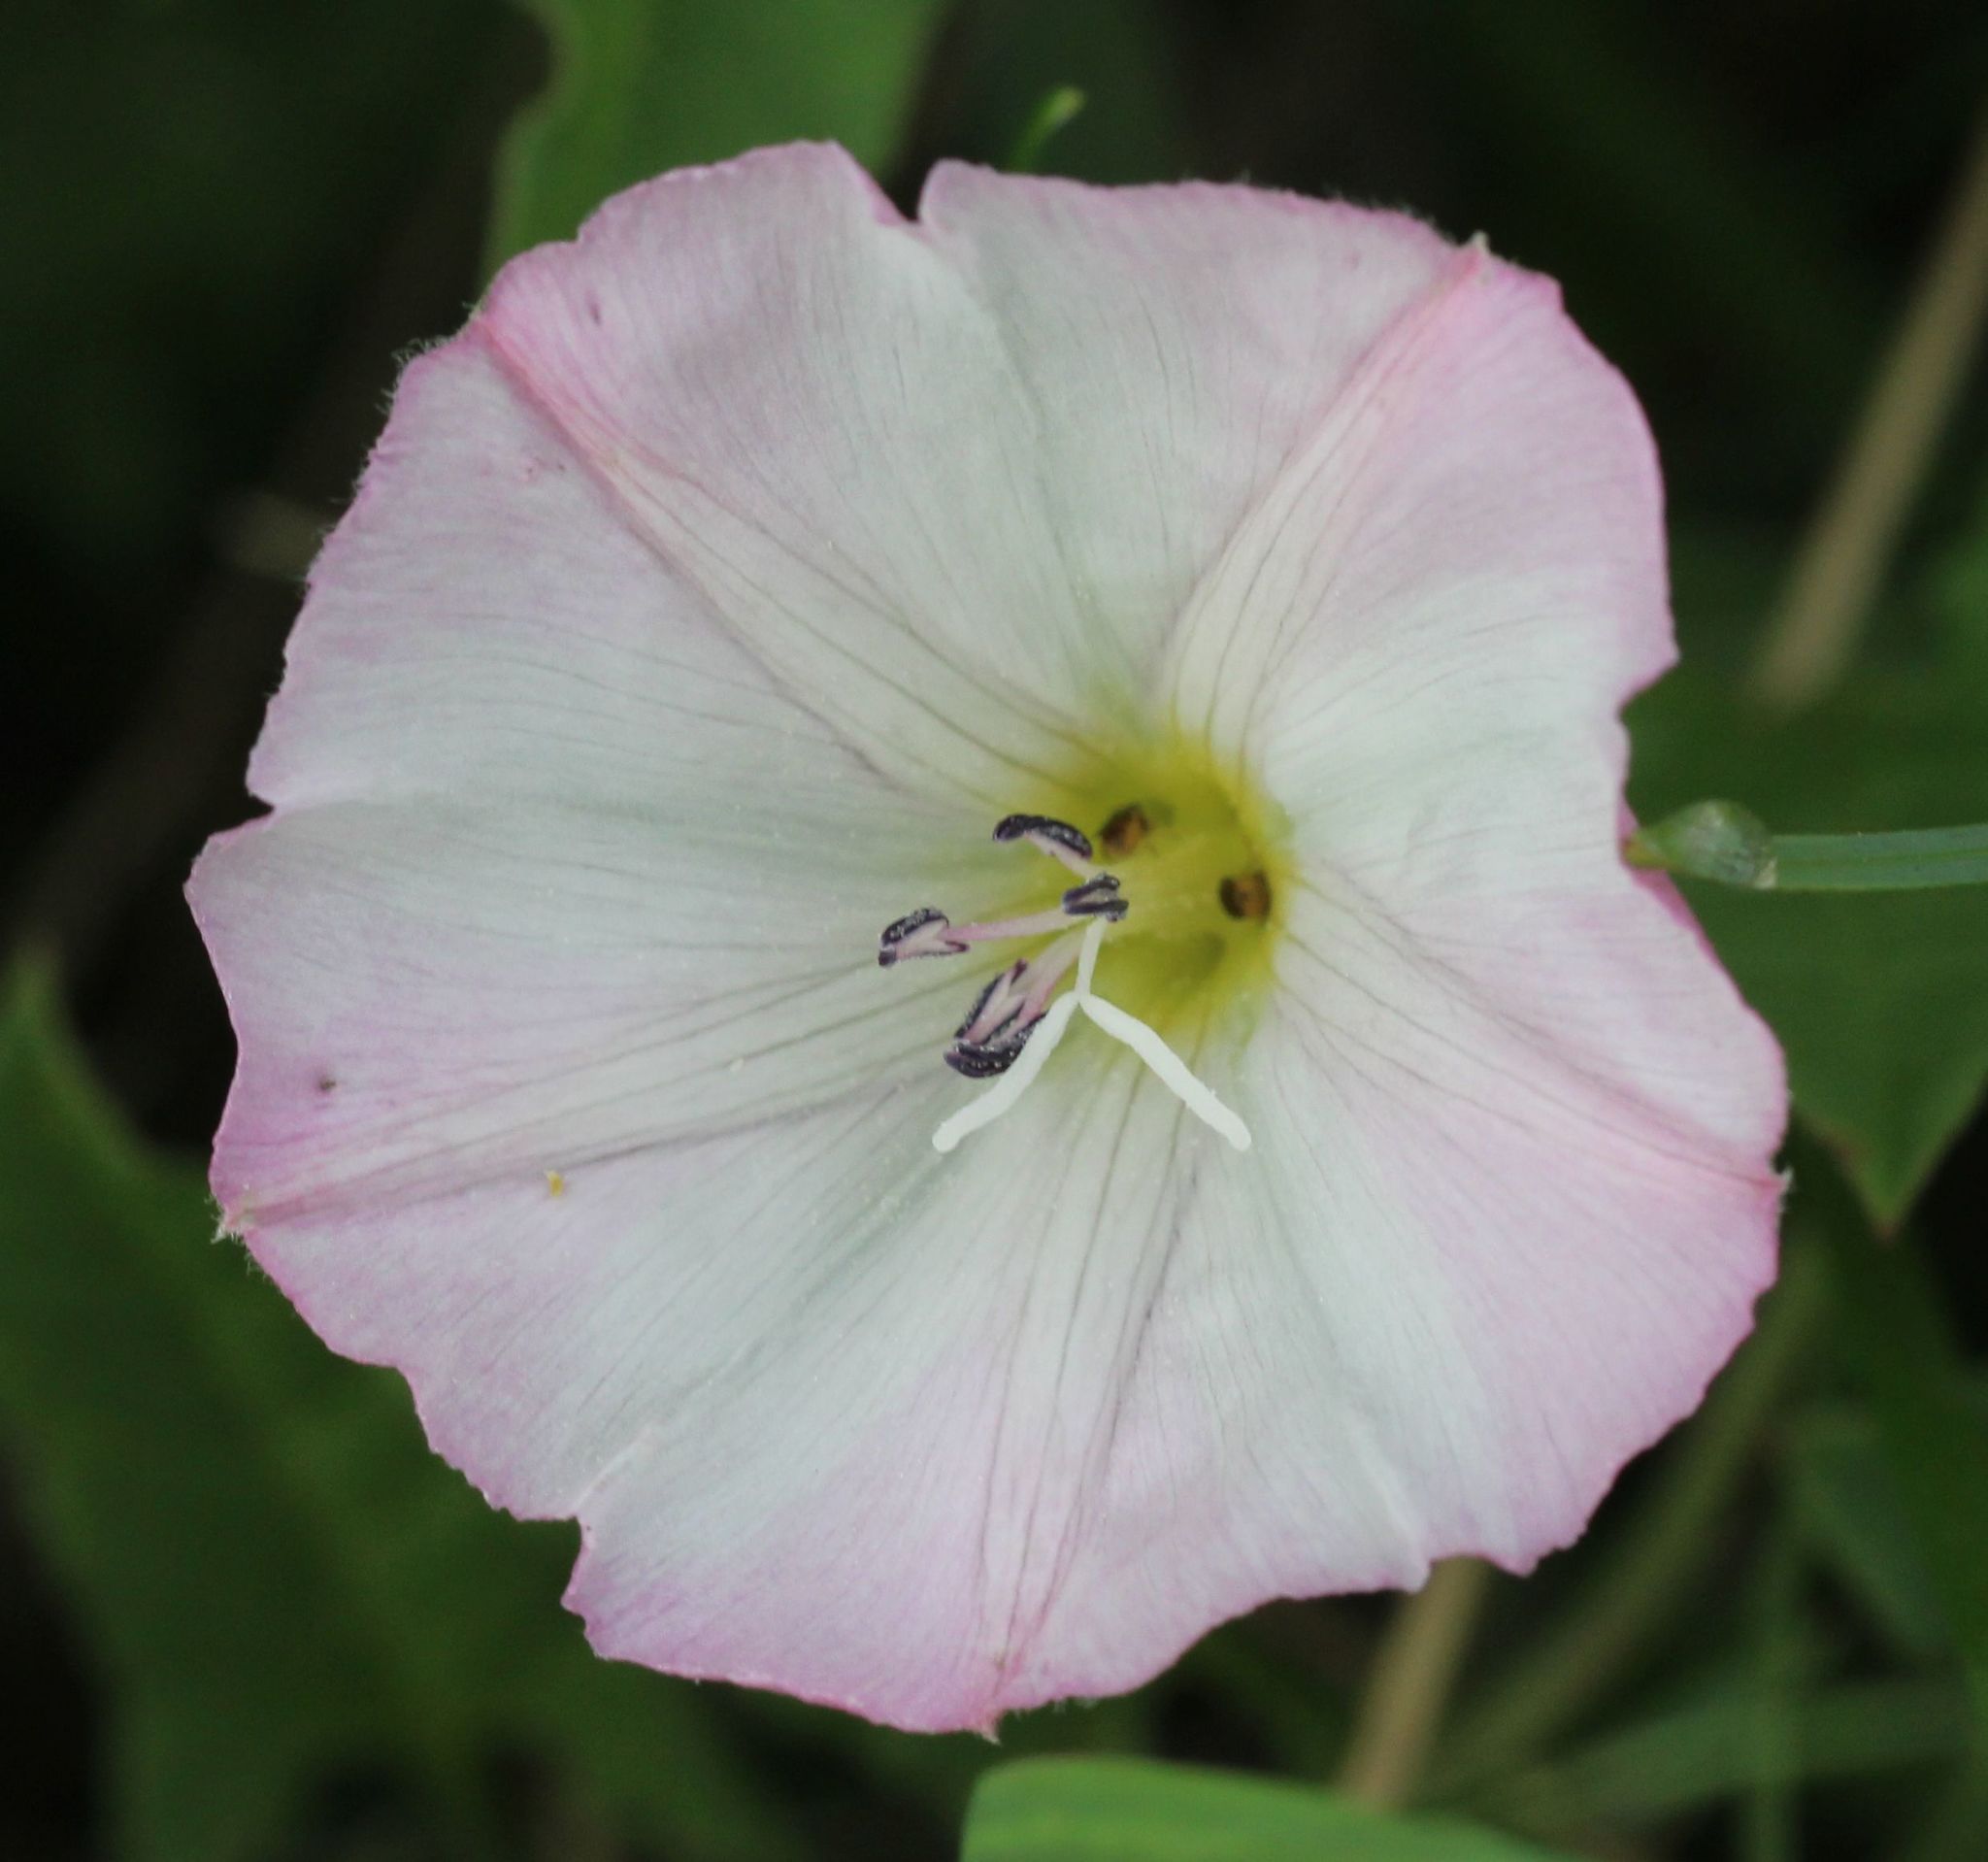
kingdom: Plantae
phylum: Tracheophyta
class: Magnoliopsida
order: Solanales
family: Convolvulaceae
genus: Convolvulus
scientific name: Convolvulus arvensis
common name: Field bindweed
